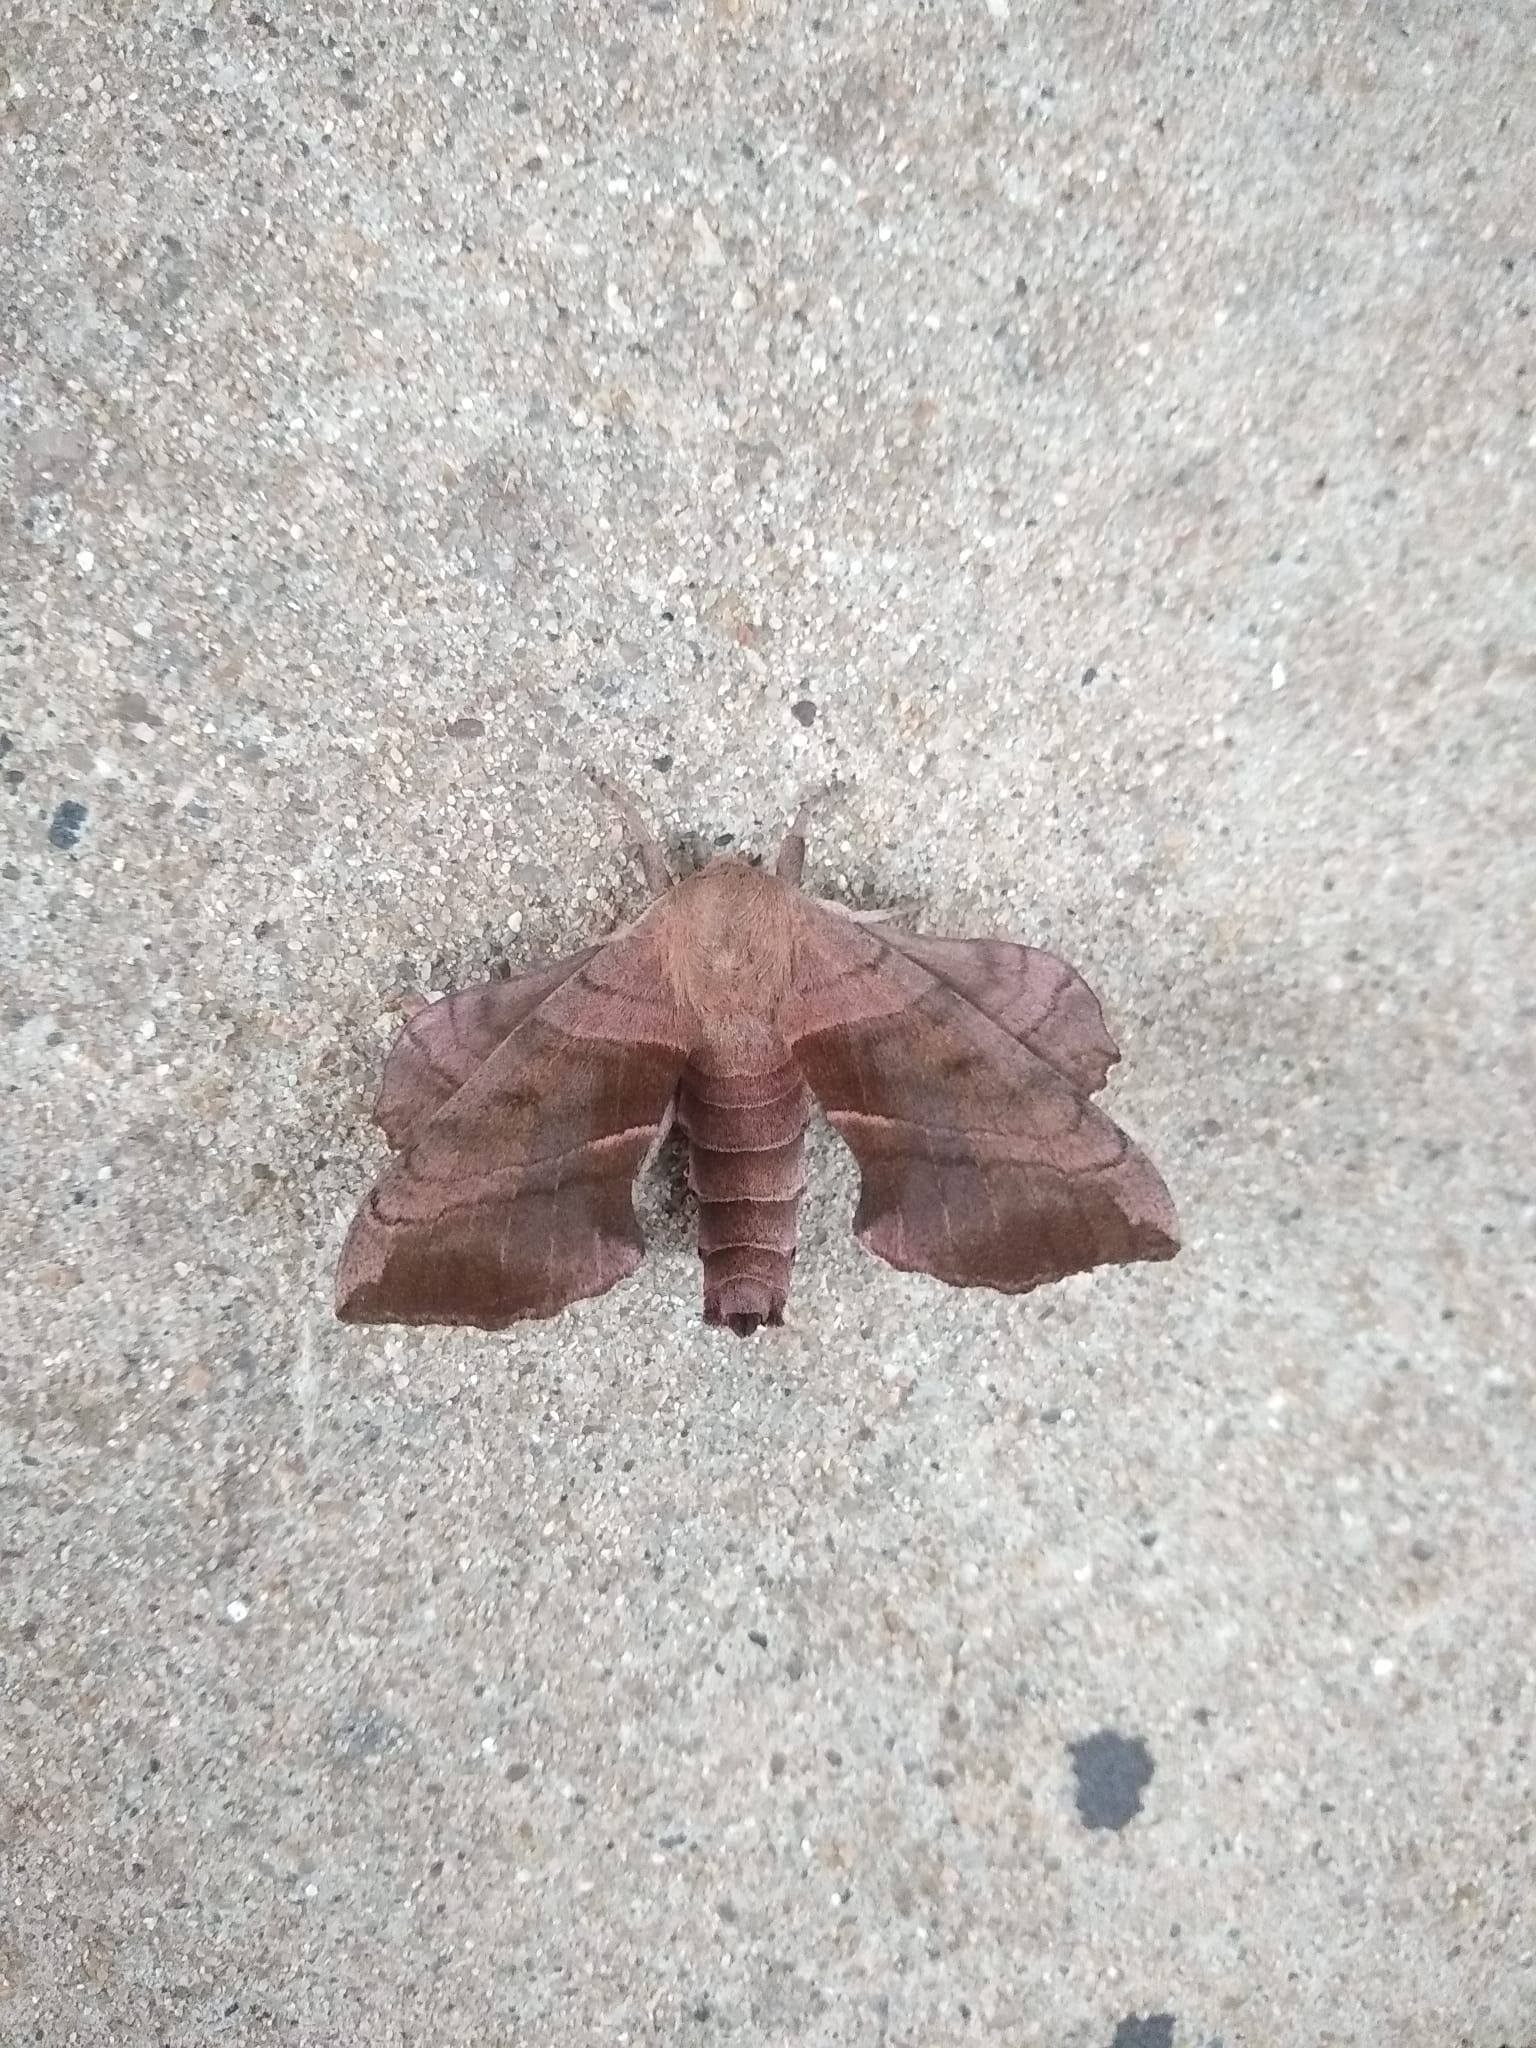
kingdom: Animalia
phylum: Arthropoda
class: Insecta
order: Lepidoptera
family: Sphingidae
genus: Amorpha
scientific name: Amorpha juglandis
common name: Walnut sphinx
